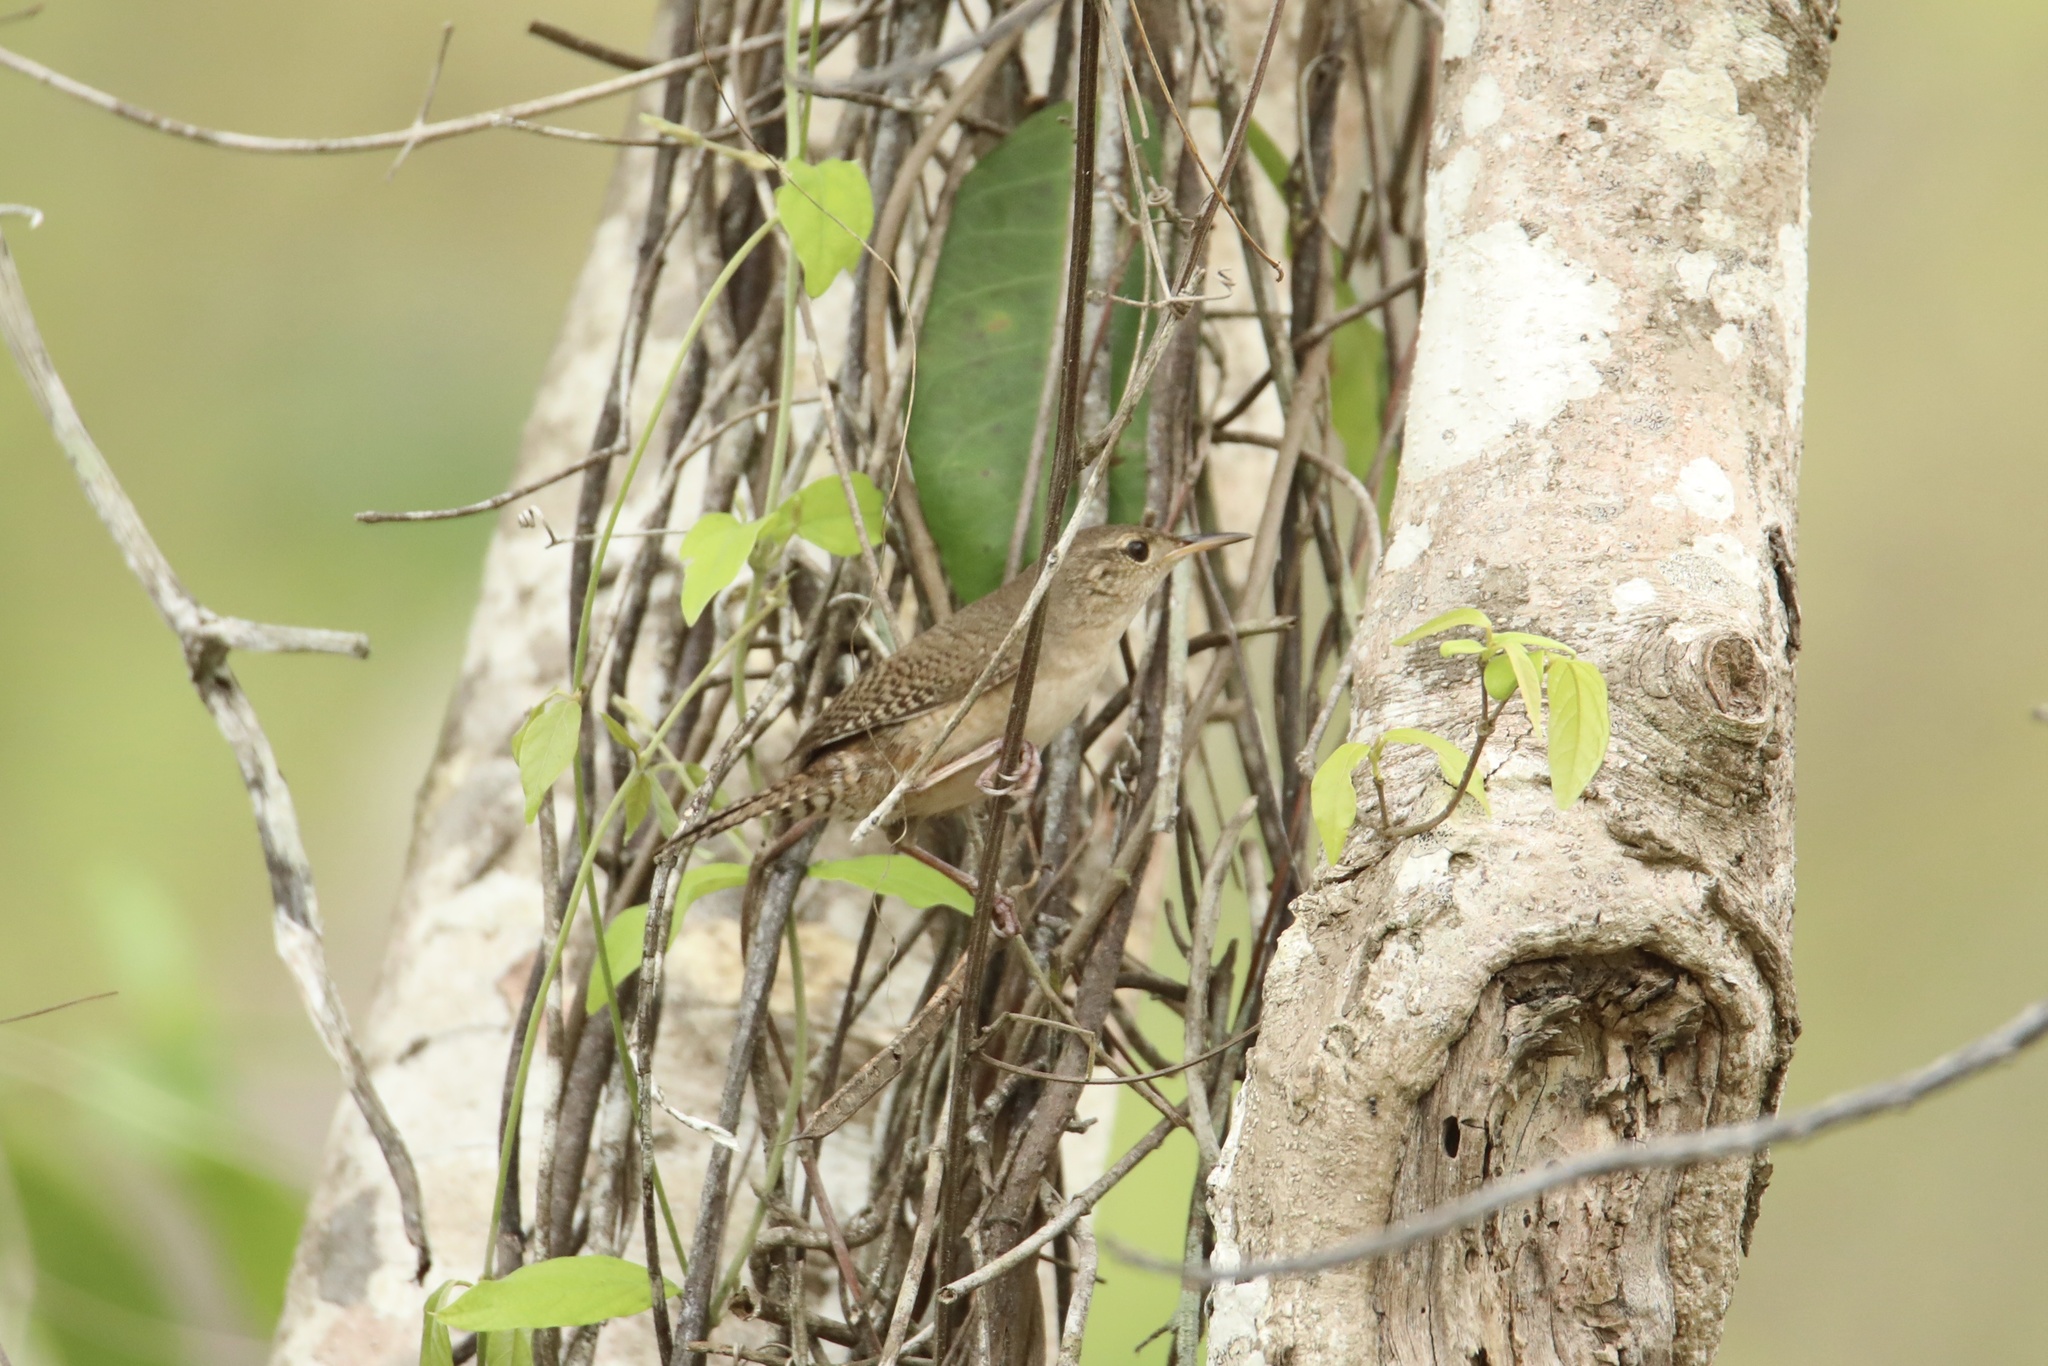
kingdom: Animalia
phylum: Chordata
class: Aves
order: Passeriformes
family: Troglodytidae
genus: Troglodytes
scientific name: Troglodytes aedon
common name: House wren
